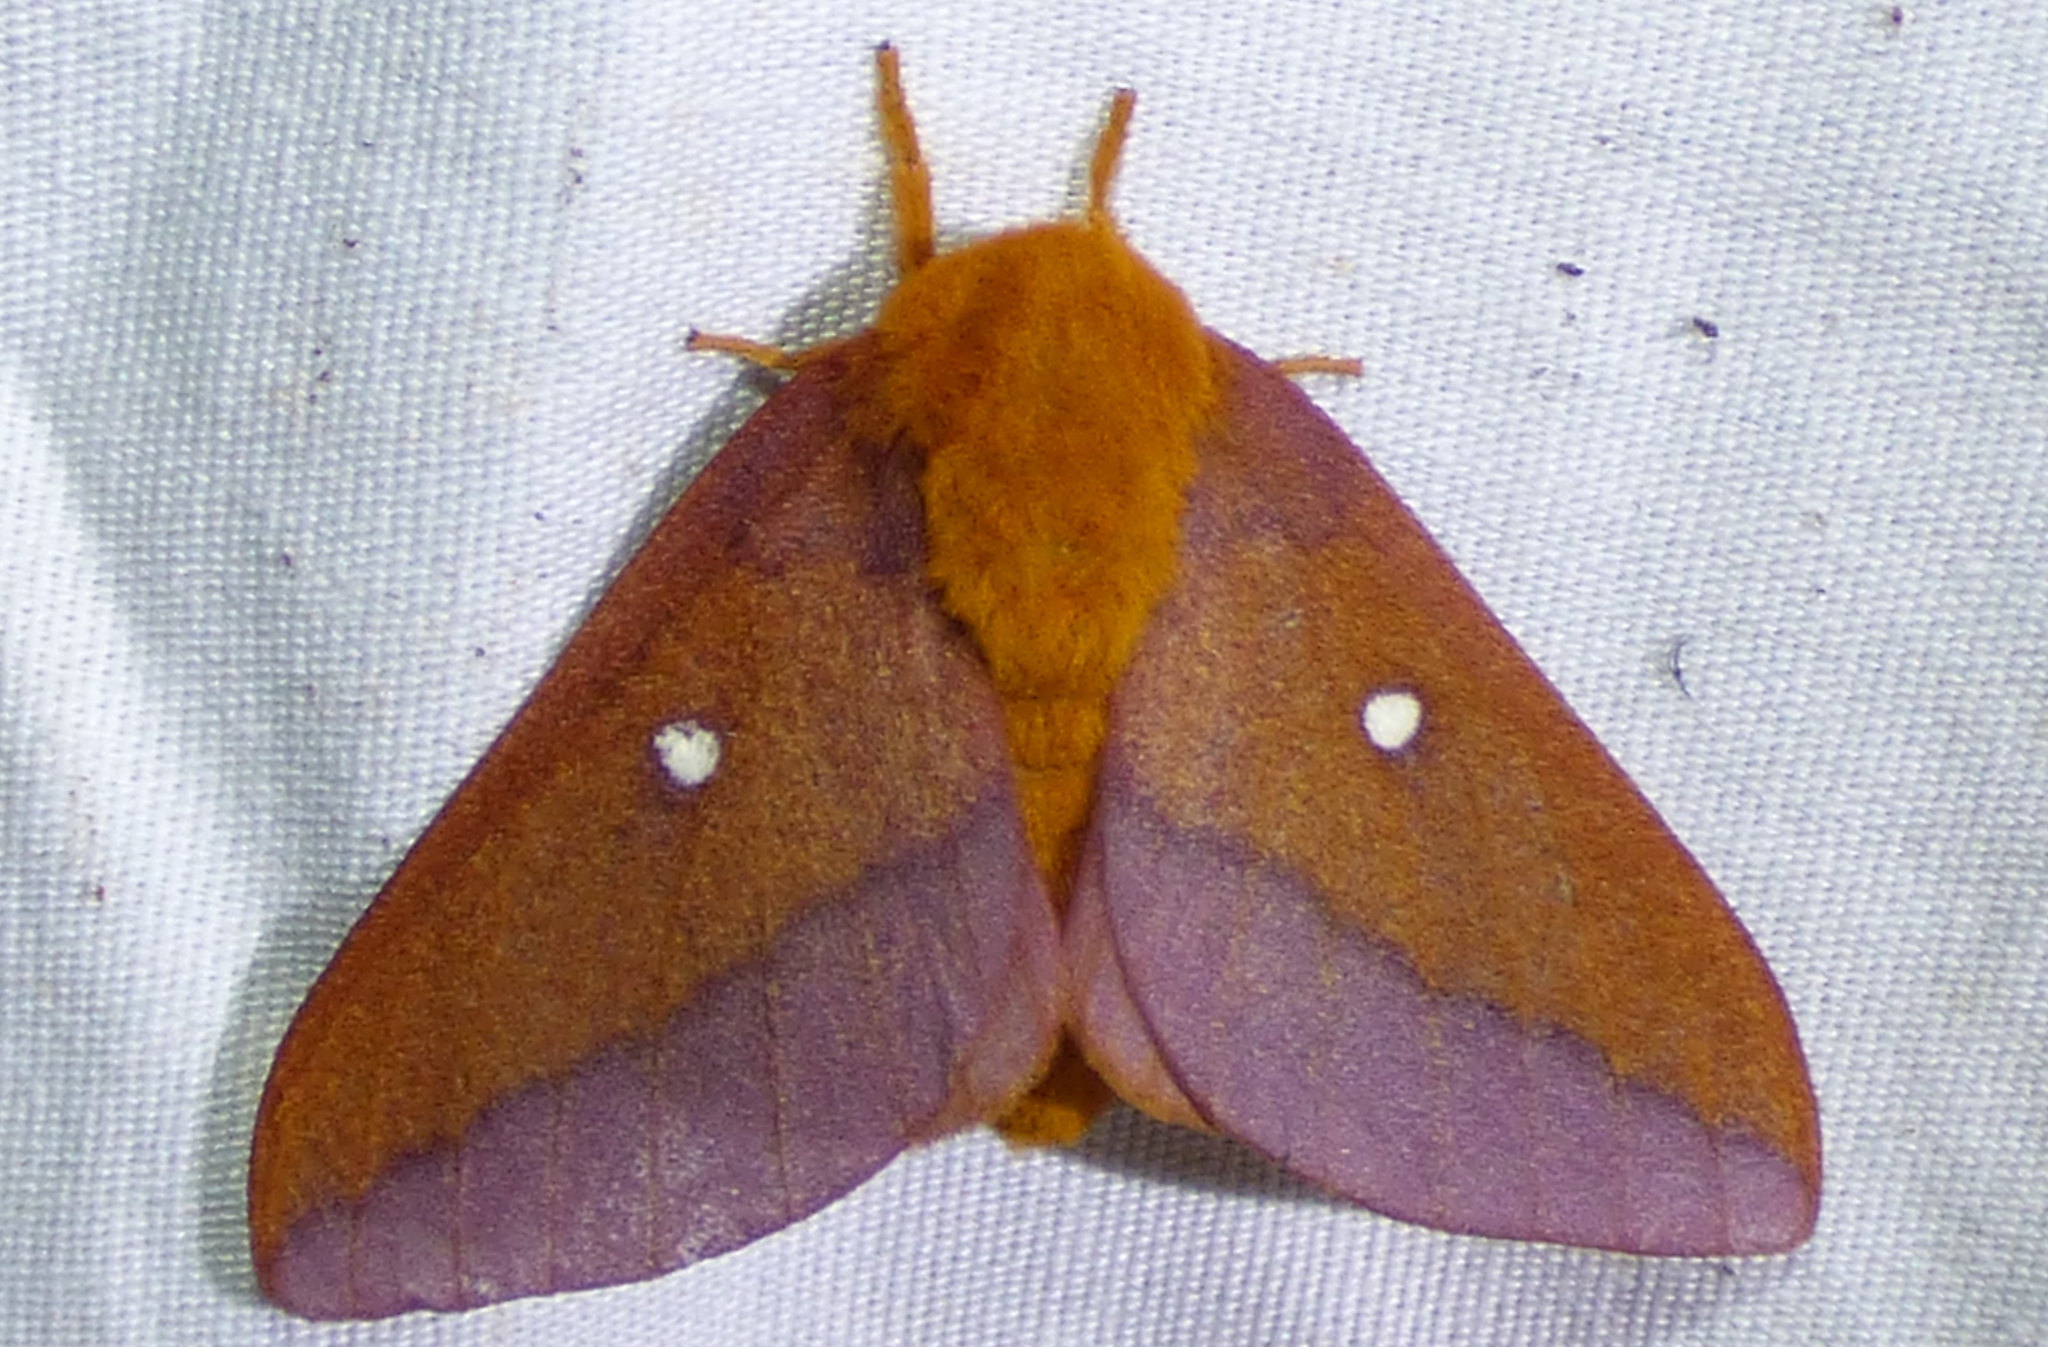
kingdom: Animalia
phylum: Arthropoda
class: Insecta
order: Lepidoptera
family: Saturniidae
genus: Anisota
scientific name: Anisota virginiensis
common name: Pink striped oakworm moth
